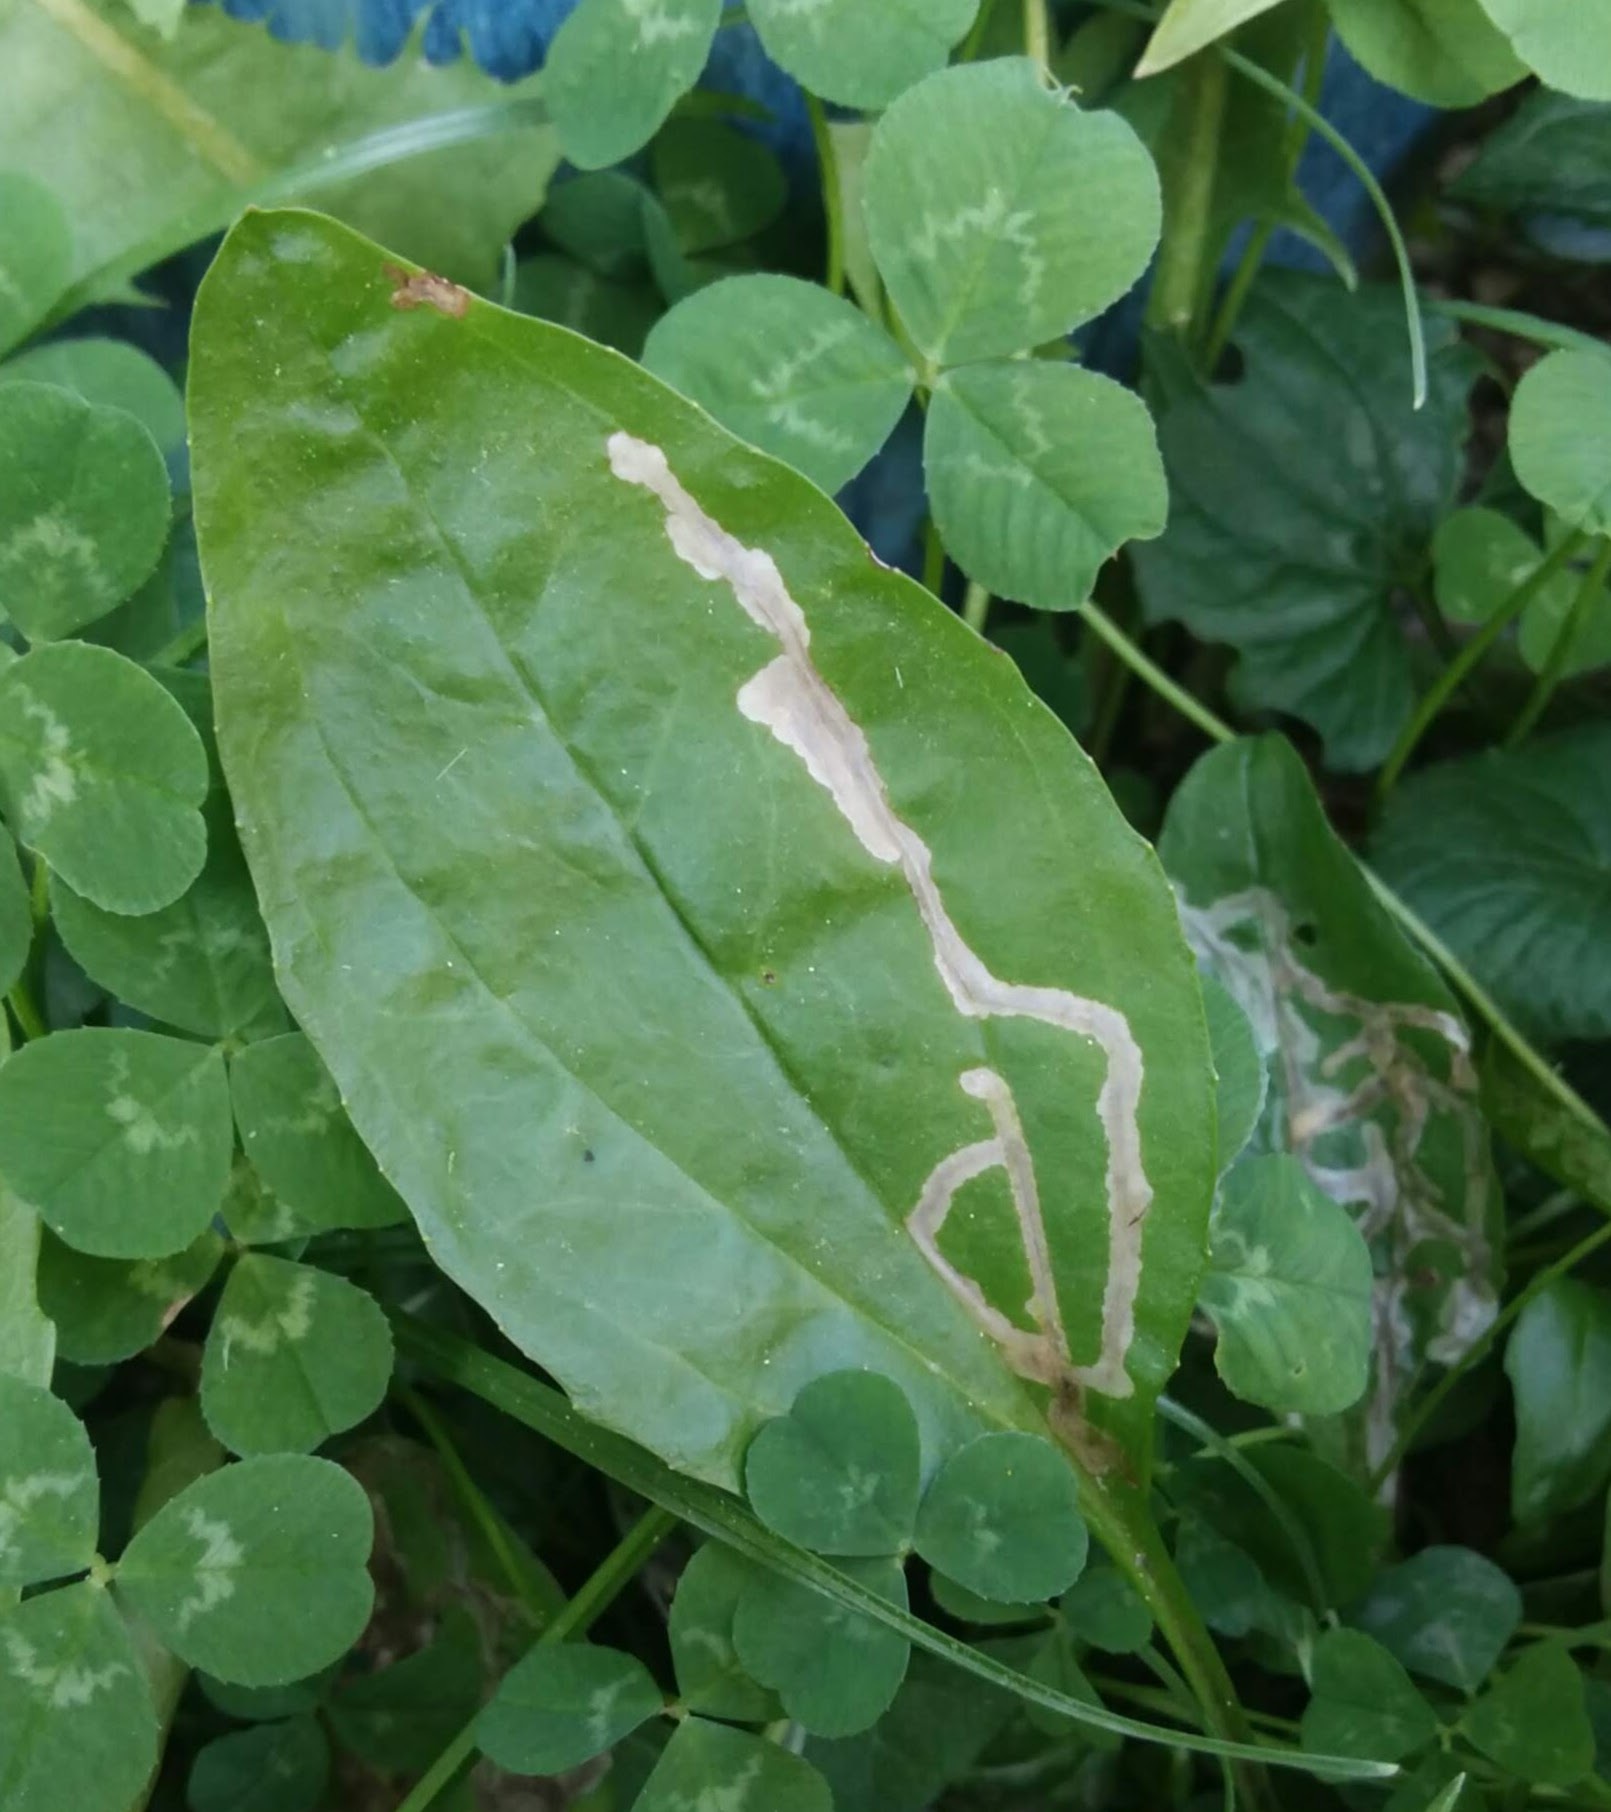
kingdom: Animalia
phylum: Arthropoda
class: Insecta
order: Coleoptera
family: Chrysomelidae
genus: Dibolia
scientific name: Dibolia borealis
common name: Northern plantain flea beetle
